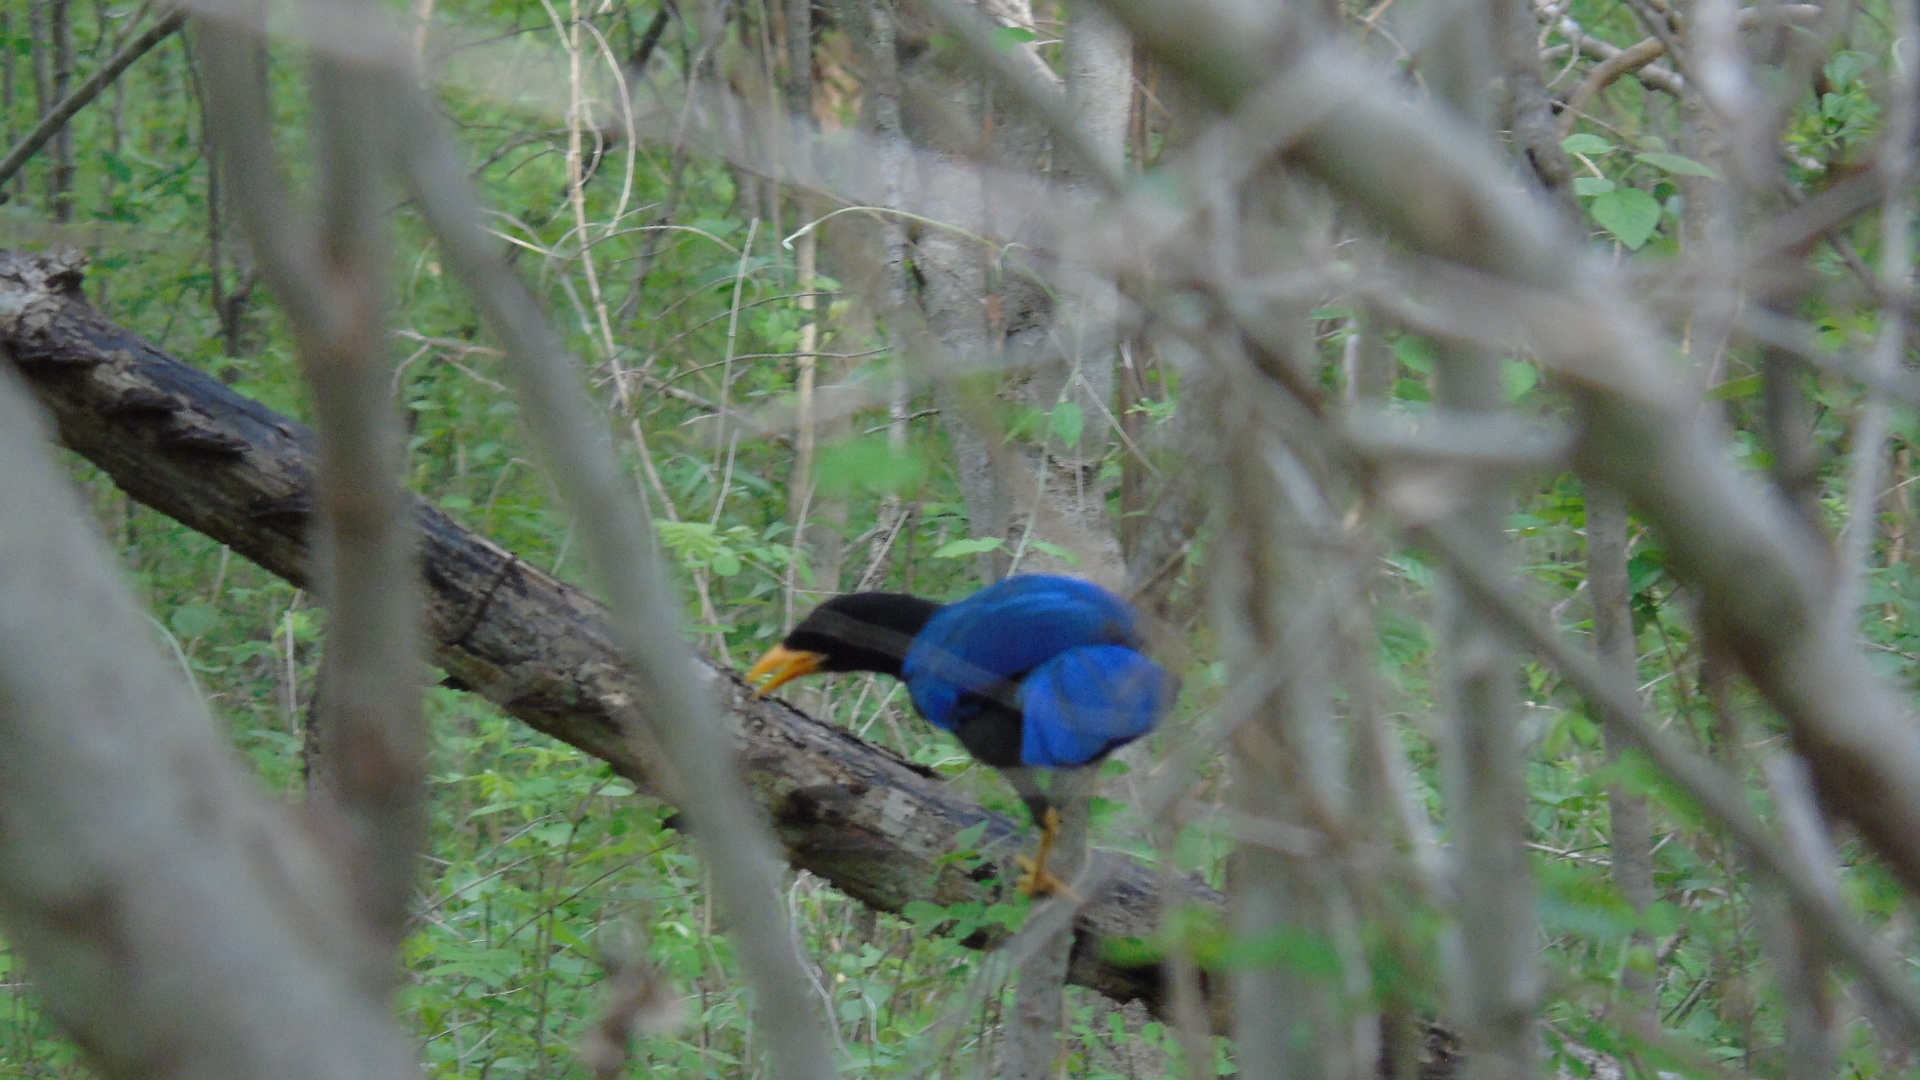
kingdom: Animalia
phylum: Chordata
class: Aves
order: Passeriformes
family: Corvidae
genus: Cyanocorax
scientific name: Cyanocorax beecheii
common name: Purplish-backed jay
